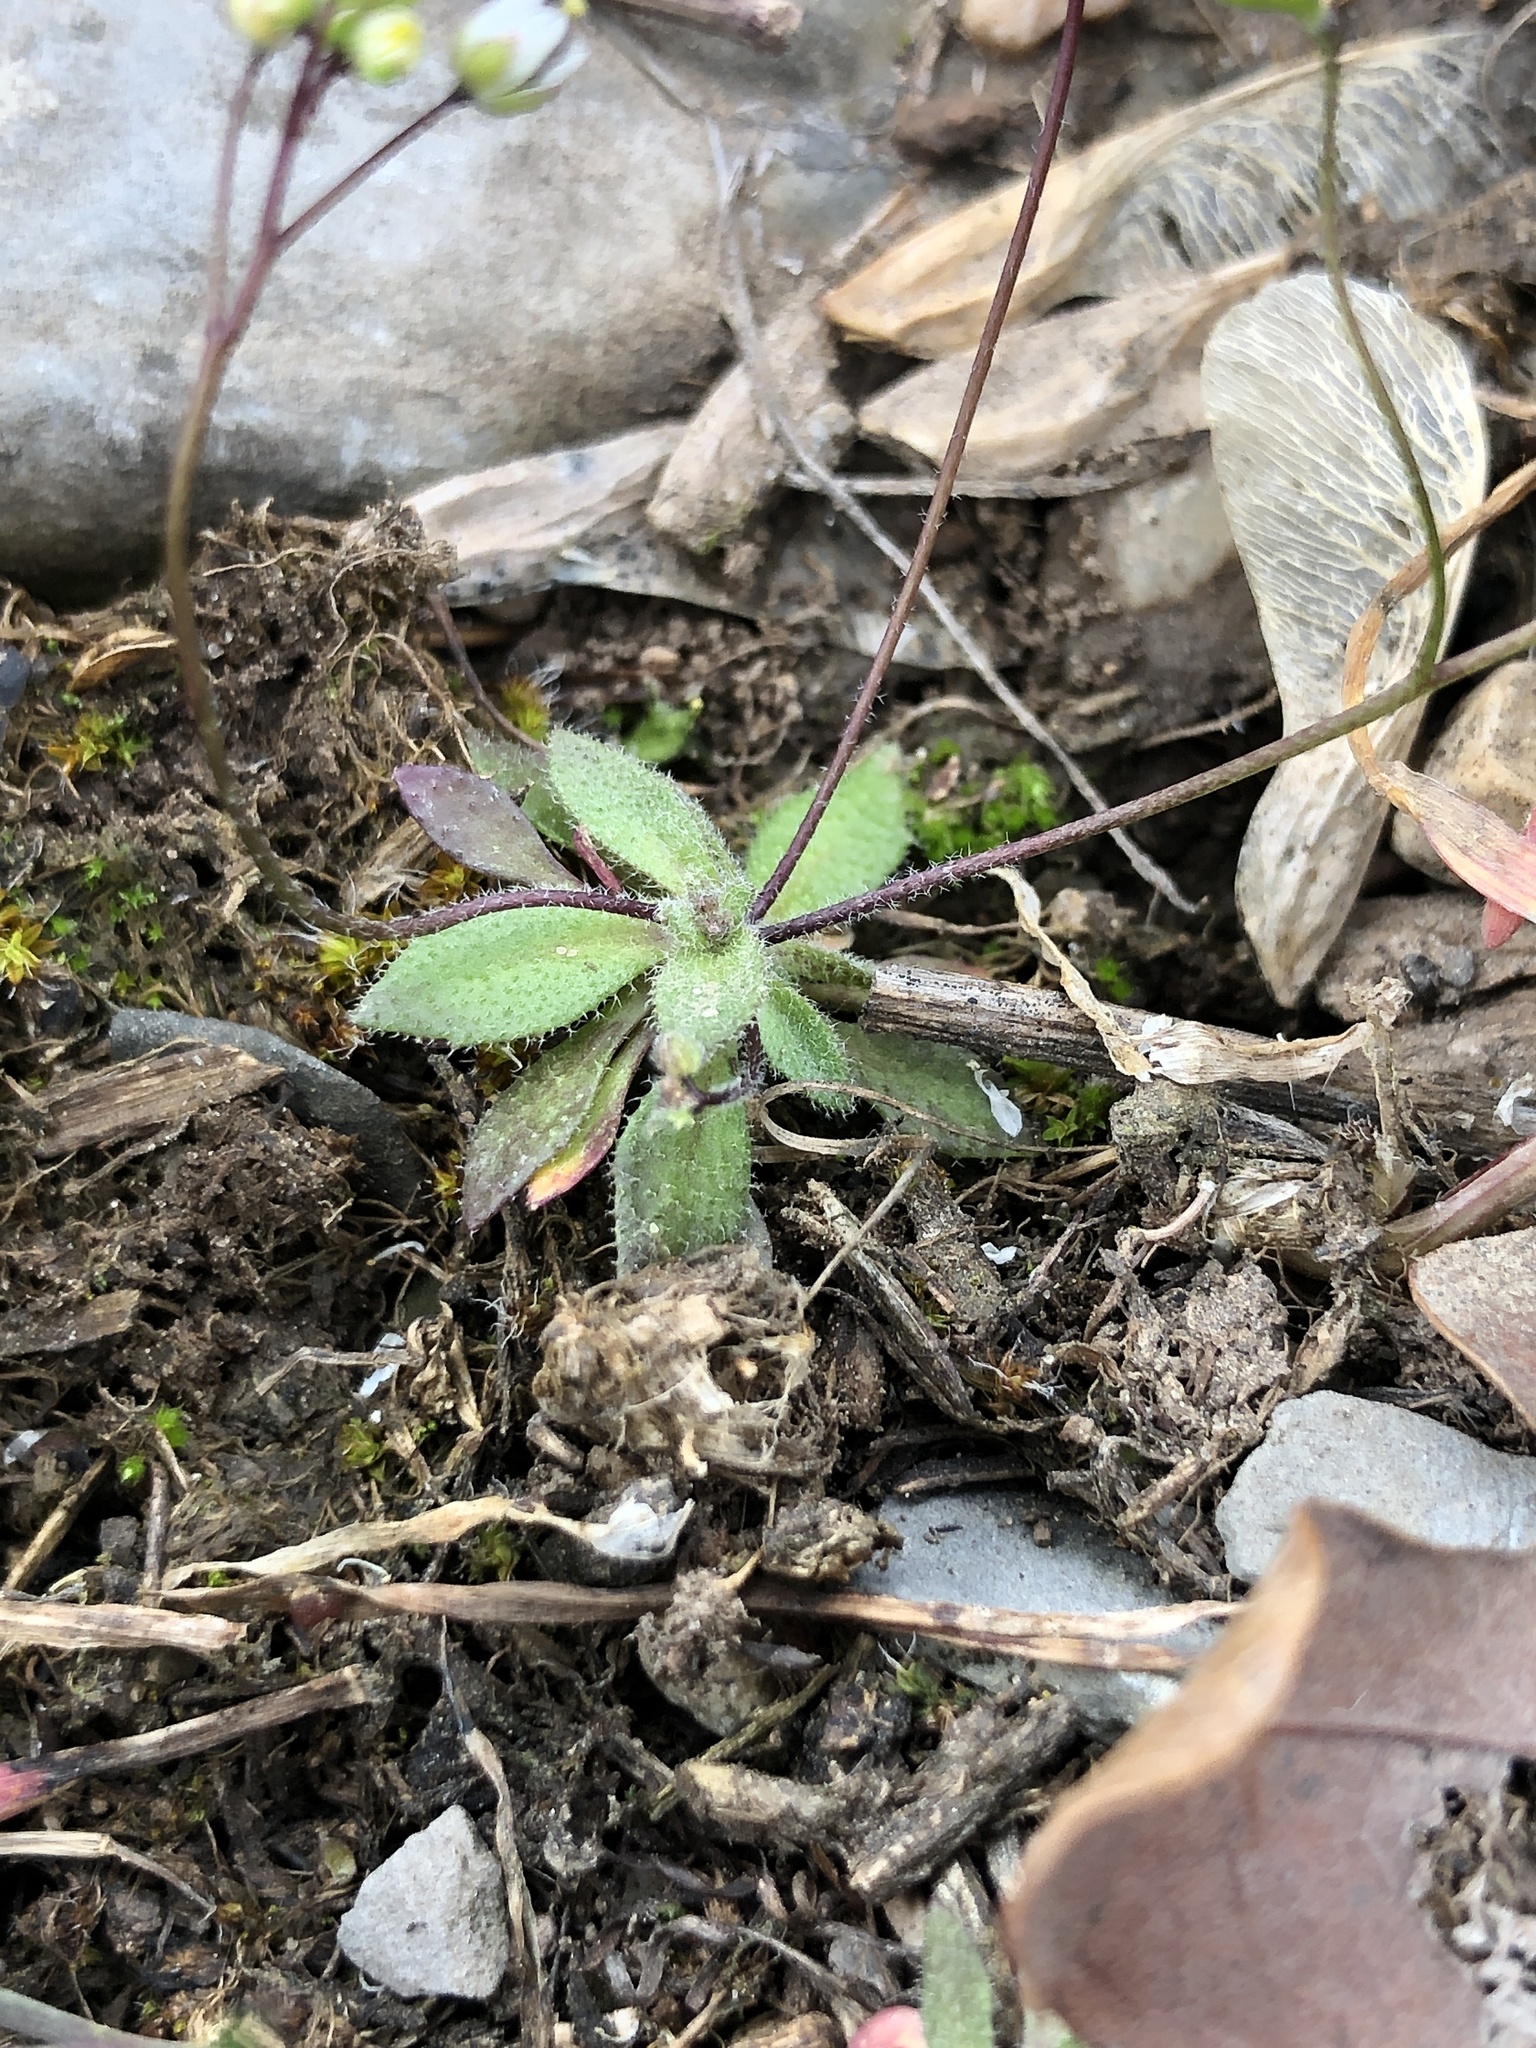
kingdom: Plantae
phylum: Tracheophyta
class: Magnoliopsida
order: Brassicales
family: Brassicaceae
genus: Draba
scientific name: Draba verna
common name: Spring draba
